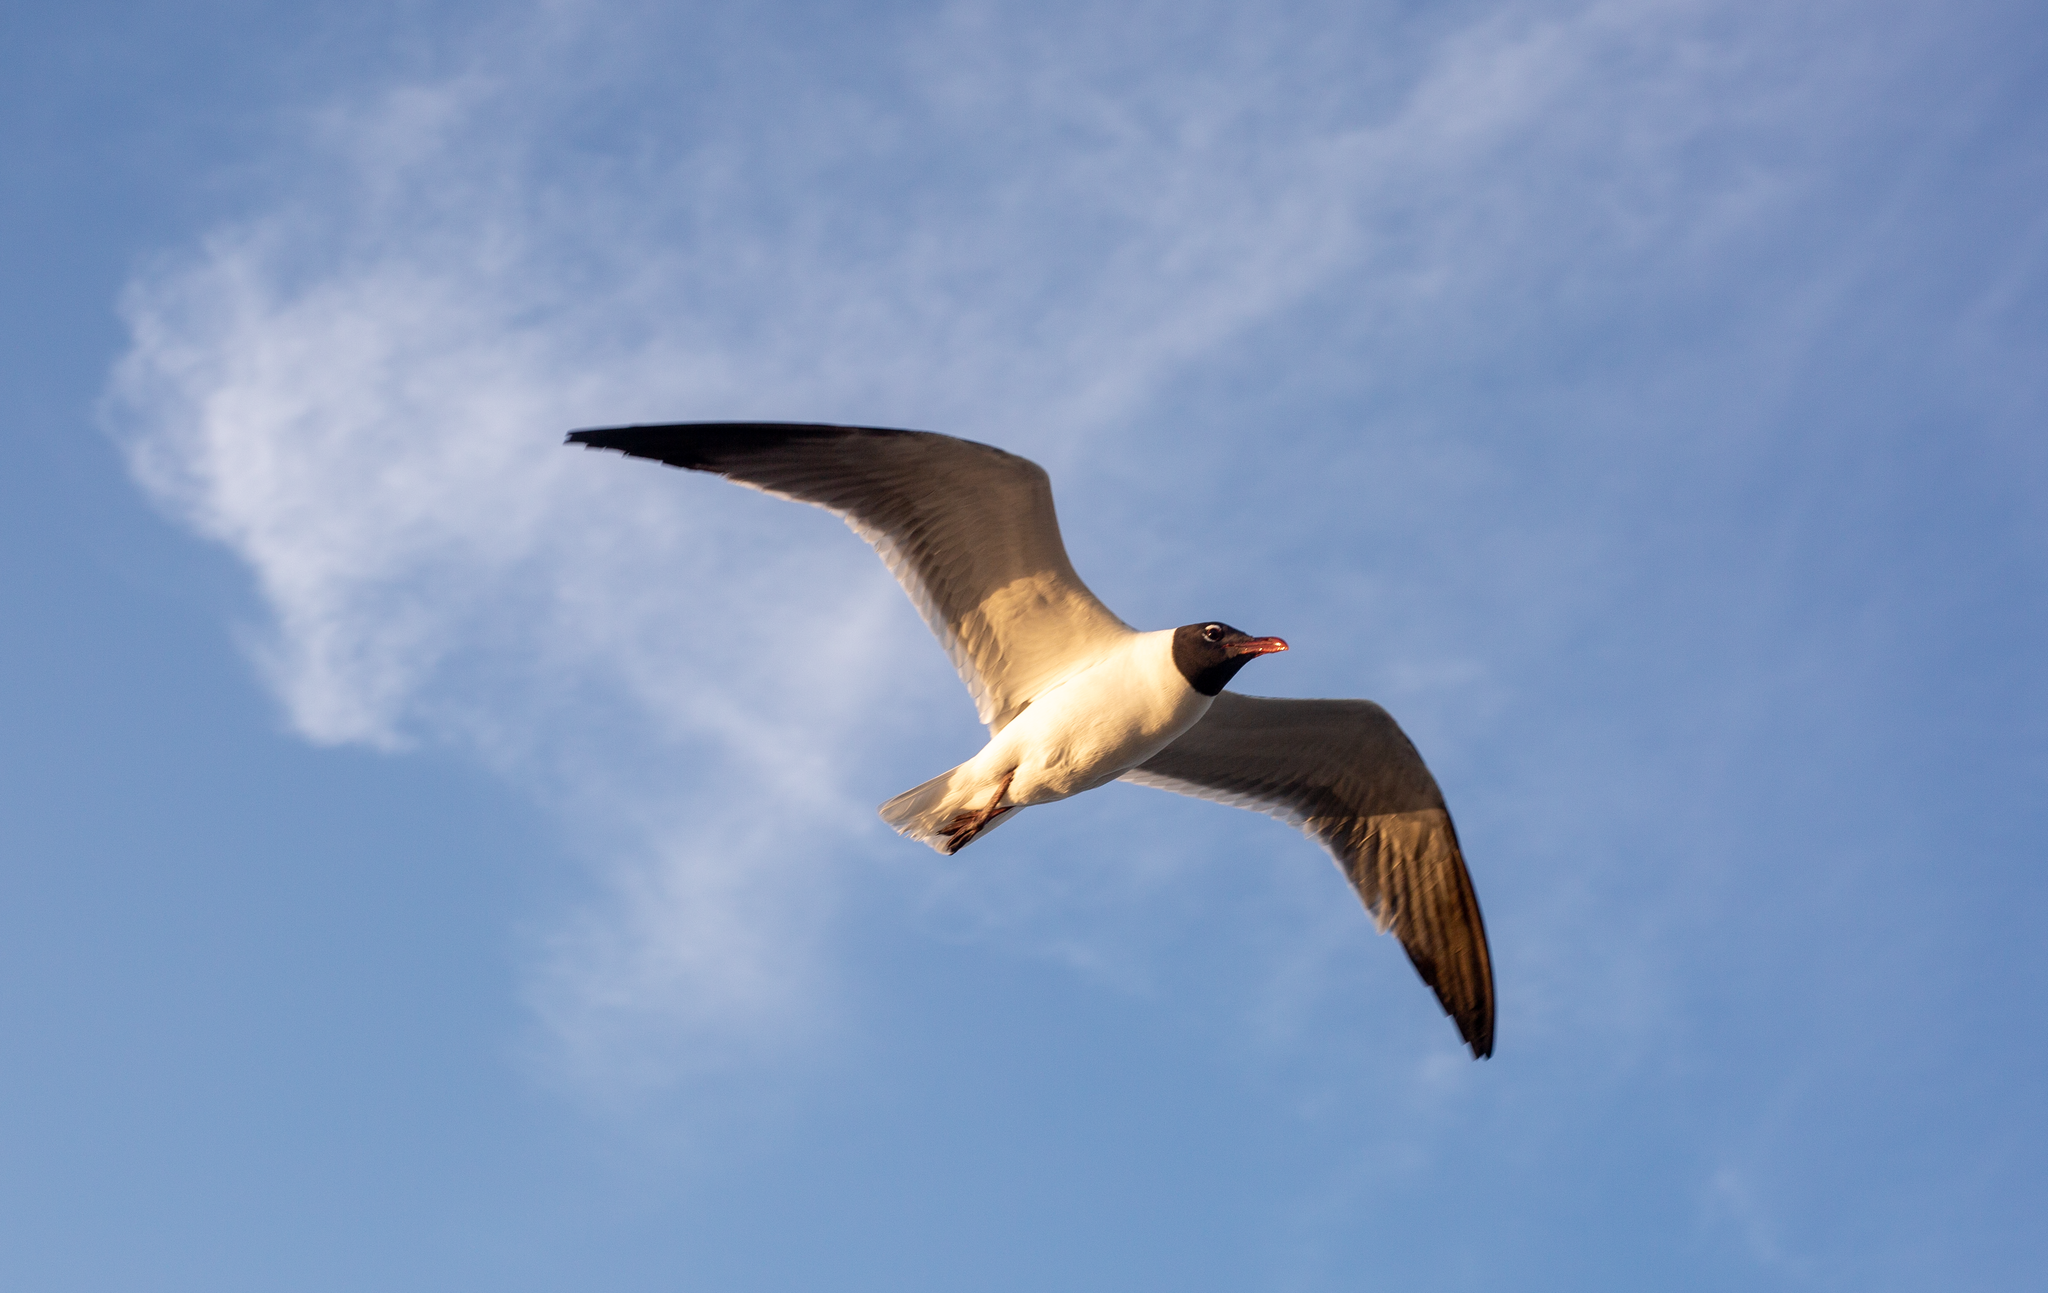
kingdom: Animalia
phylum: Chordata
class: Aves
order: Charadriiformes
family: Laridae
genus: Leucophaeus
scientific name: Leucophaeus atricilla
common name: Laughing gull
